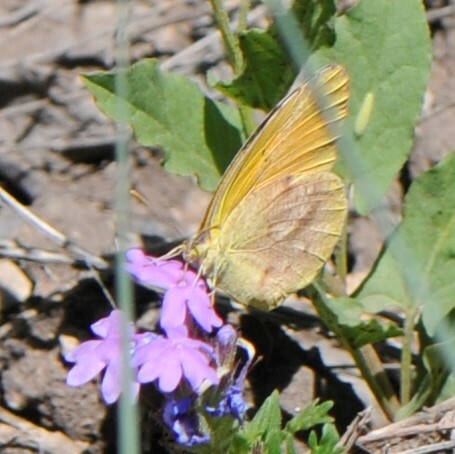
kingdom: Animalia
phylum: Arthropoda
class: Insecta
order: Lepidoptera
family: Pieridae
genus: Abaeis
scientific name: Abaeis nicippe
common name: Sleepy orange
